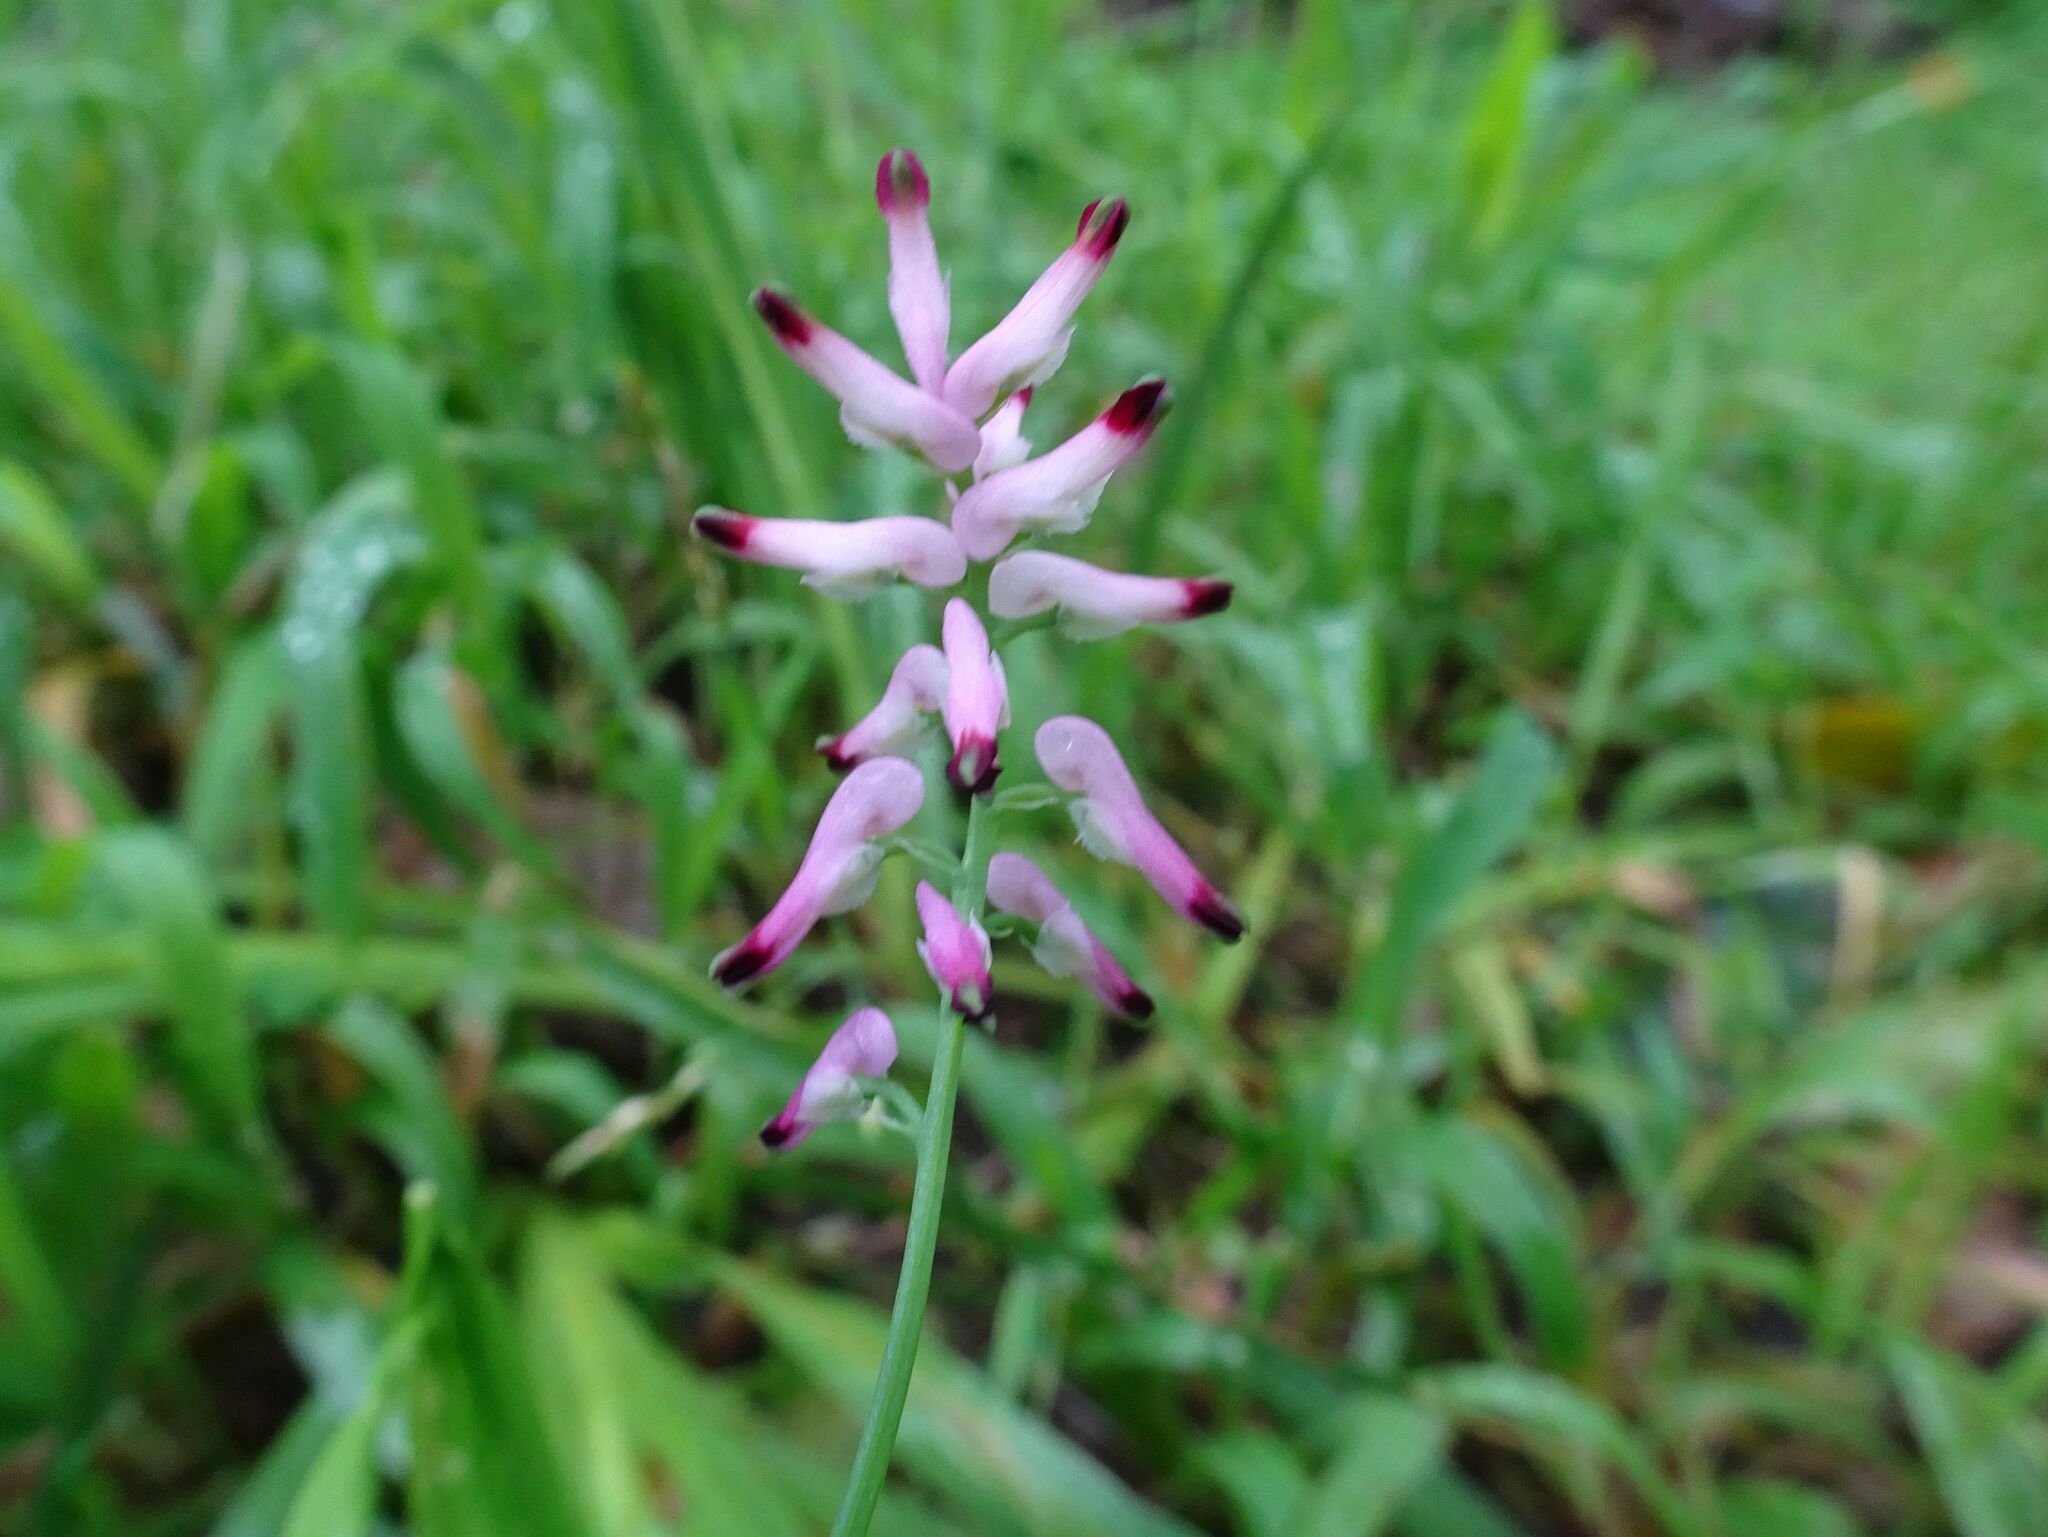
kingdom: Plantae
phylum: Tracheophyta
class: Magnoliopsida
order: Ranunculales
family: Papaveraceae
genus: Fumaria
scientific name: Fumaria muralis
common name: Common ramping-fumitory
